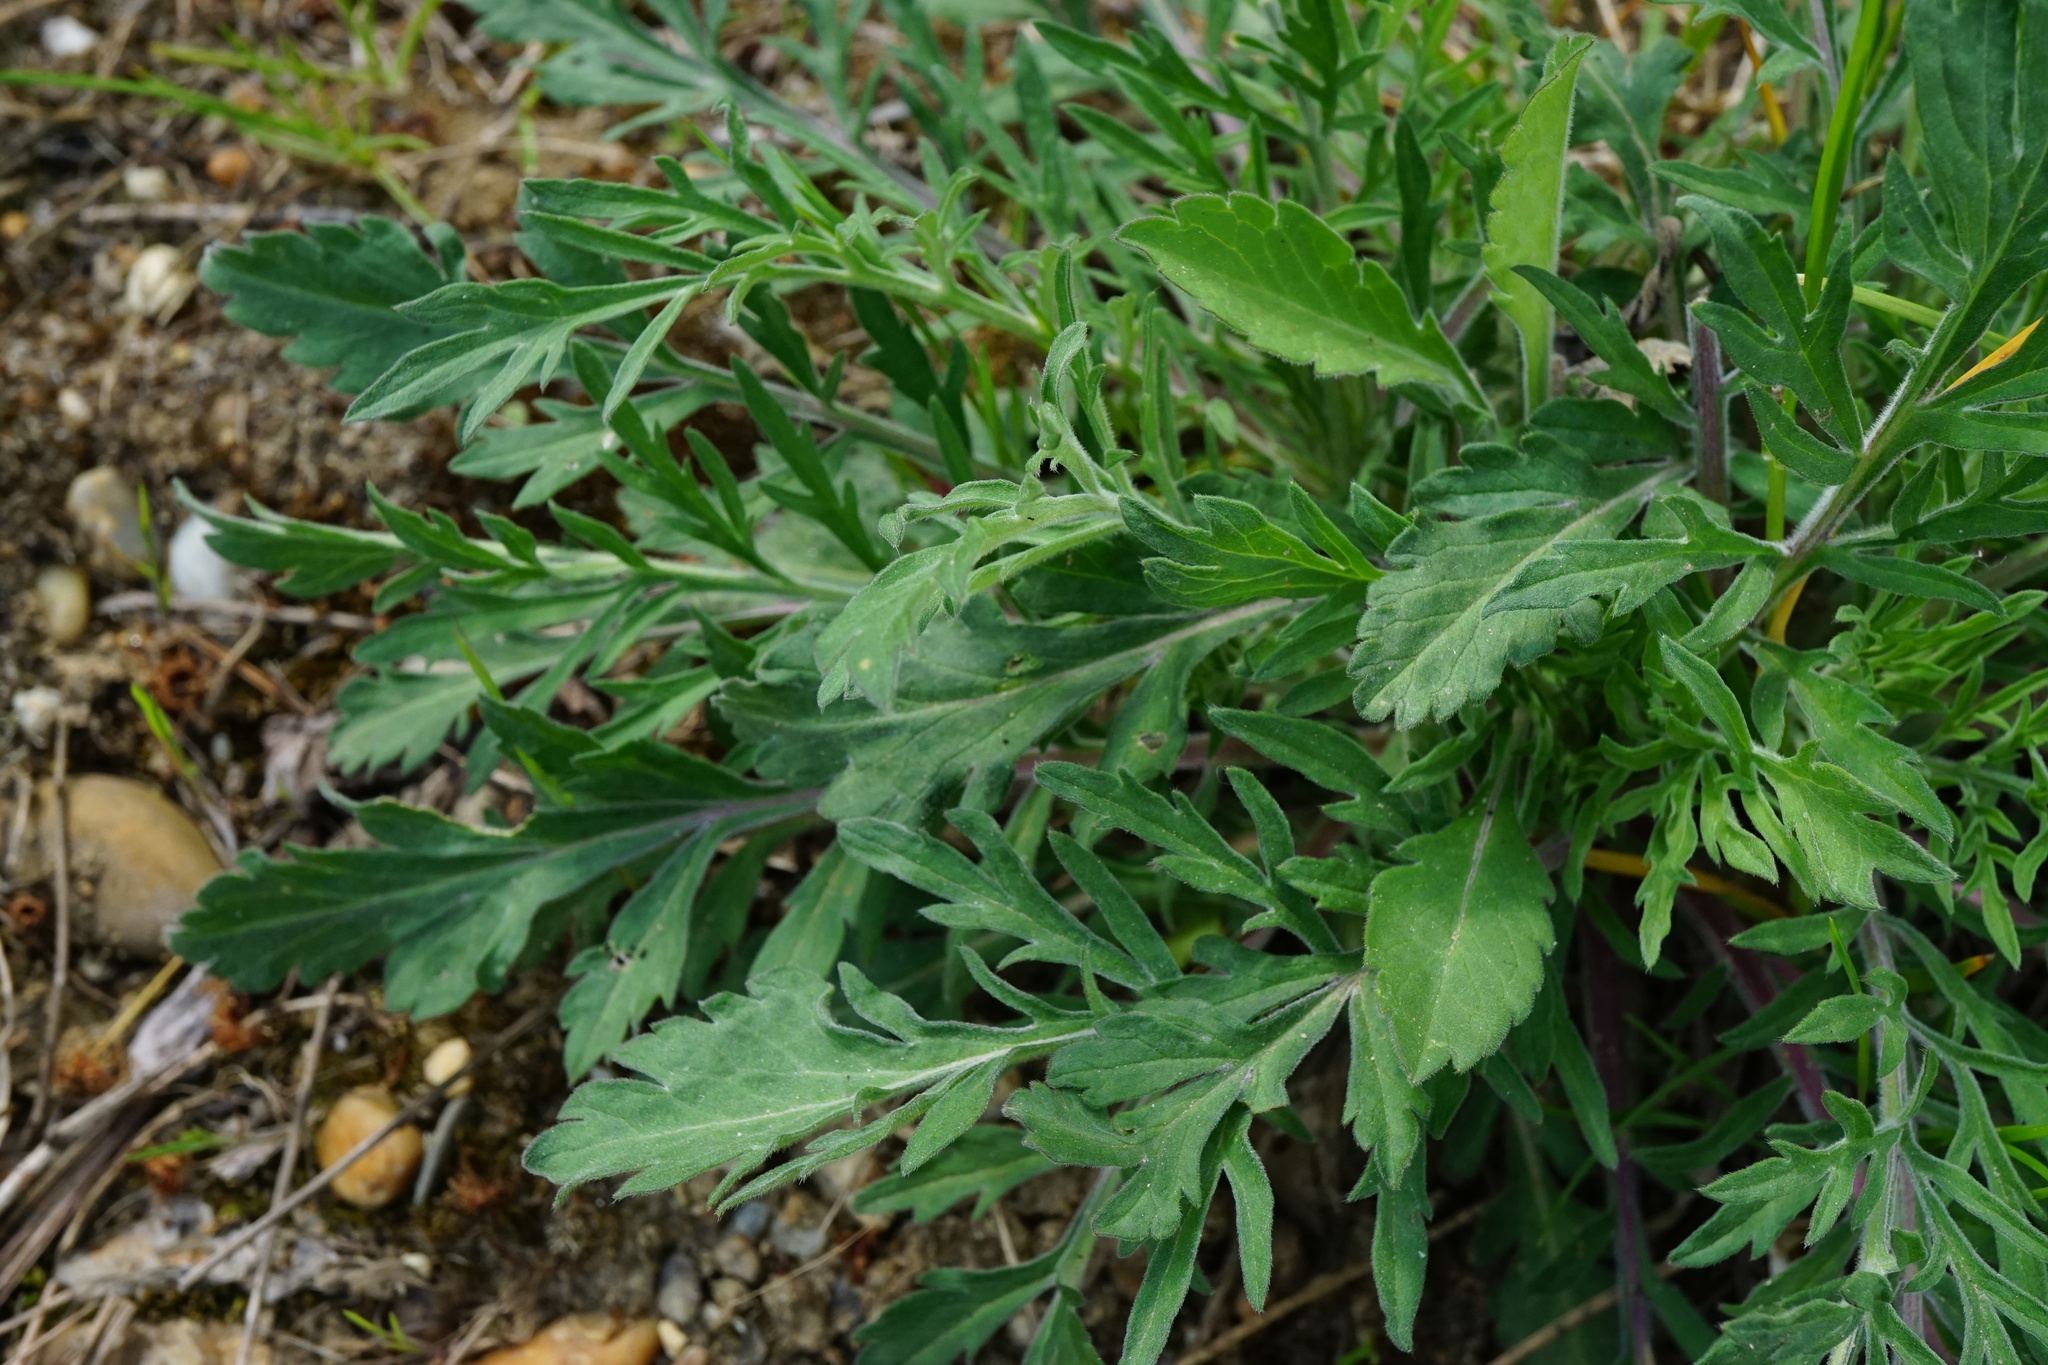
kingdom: Plantae
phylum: Tracheophyta
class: Magnoliopsida
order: Dipsacales
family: Caprifoliaceae
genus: Scabiosa
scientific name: Scabiosa ochroleuca
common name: Cream pincushions
